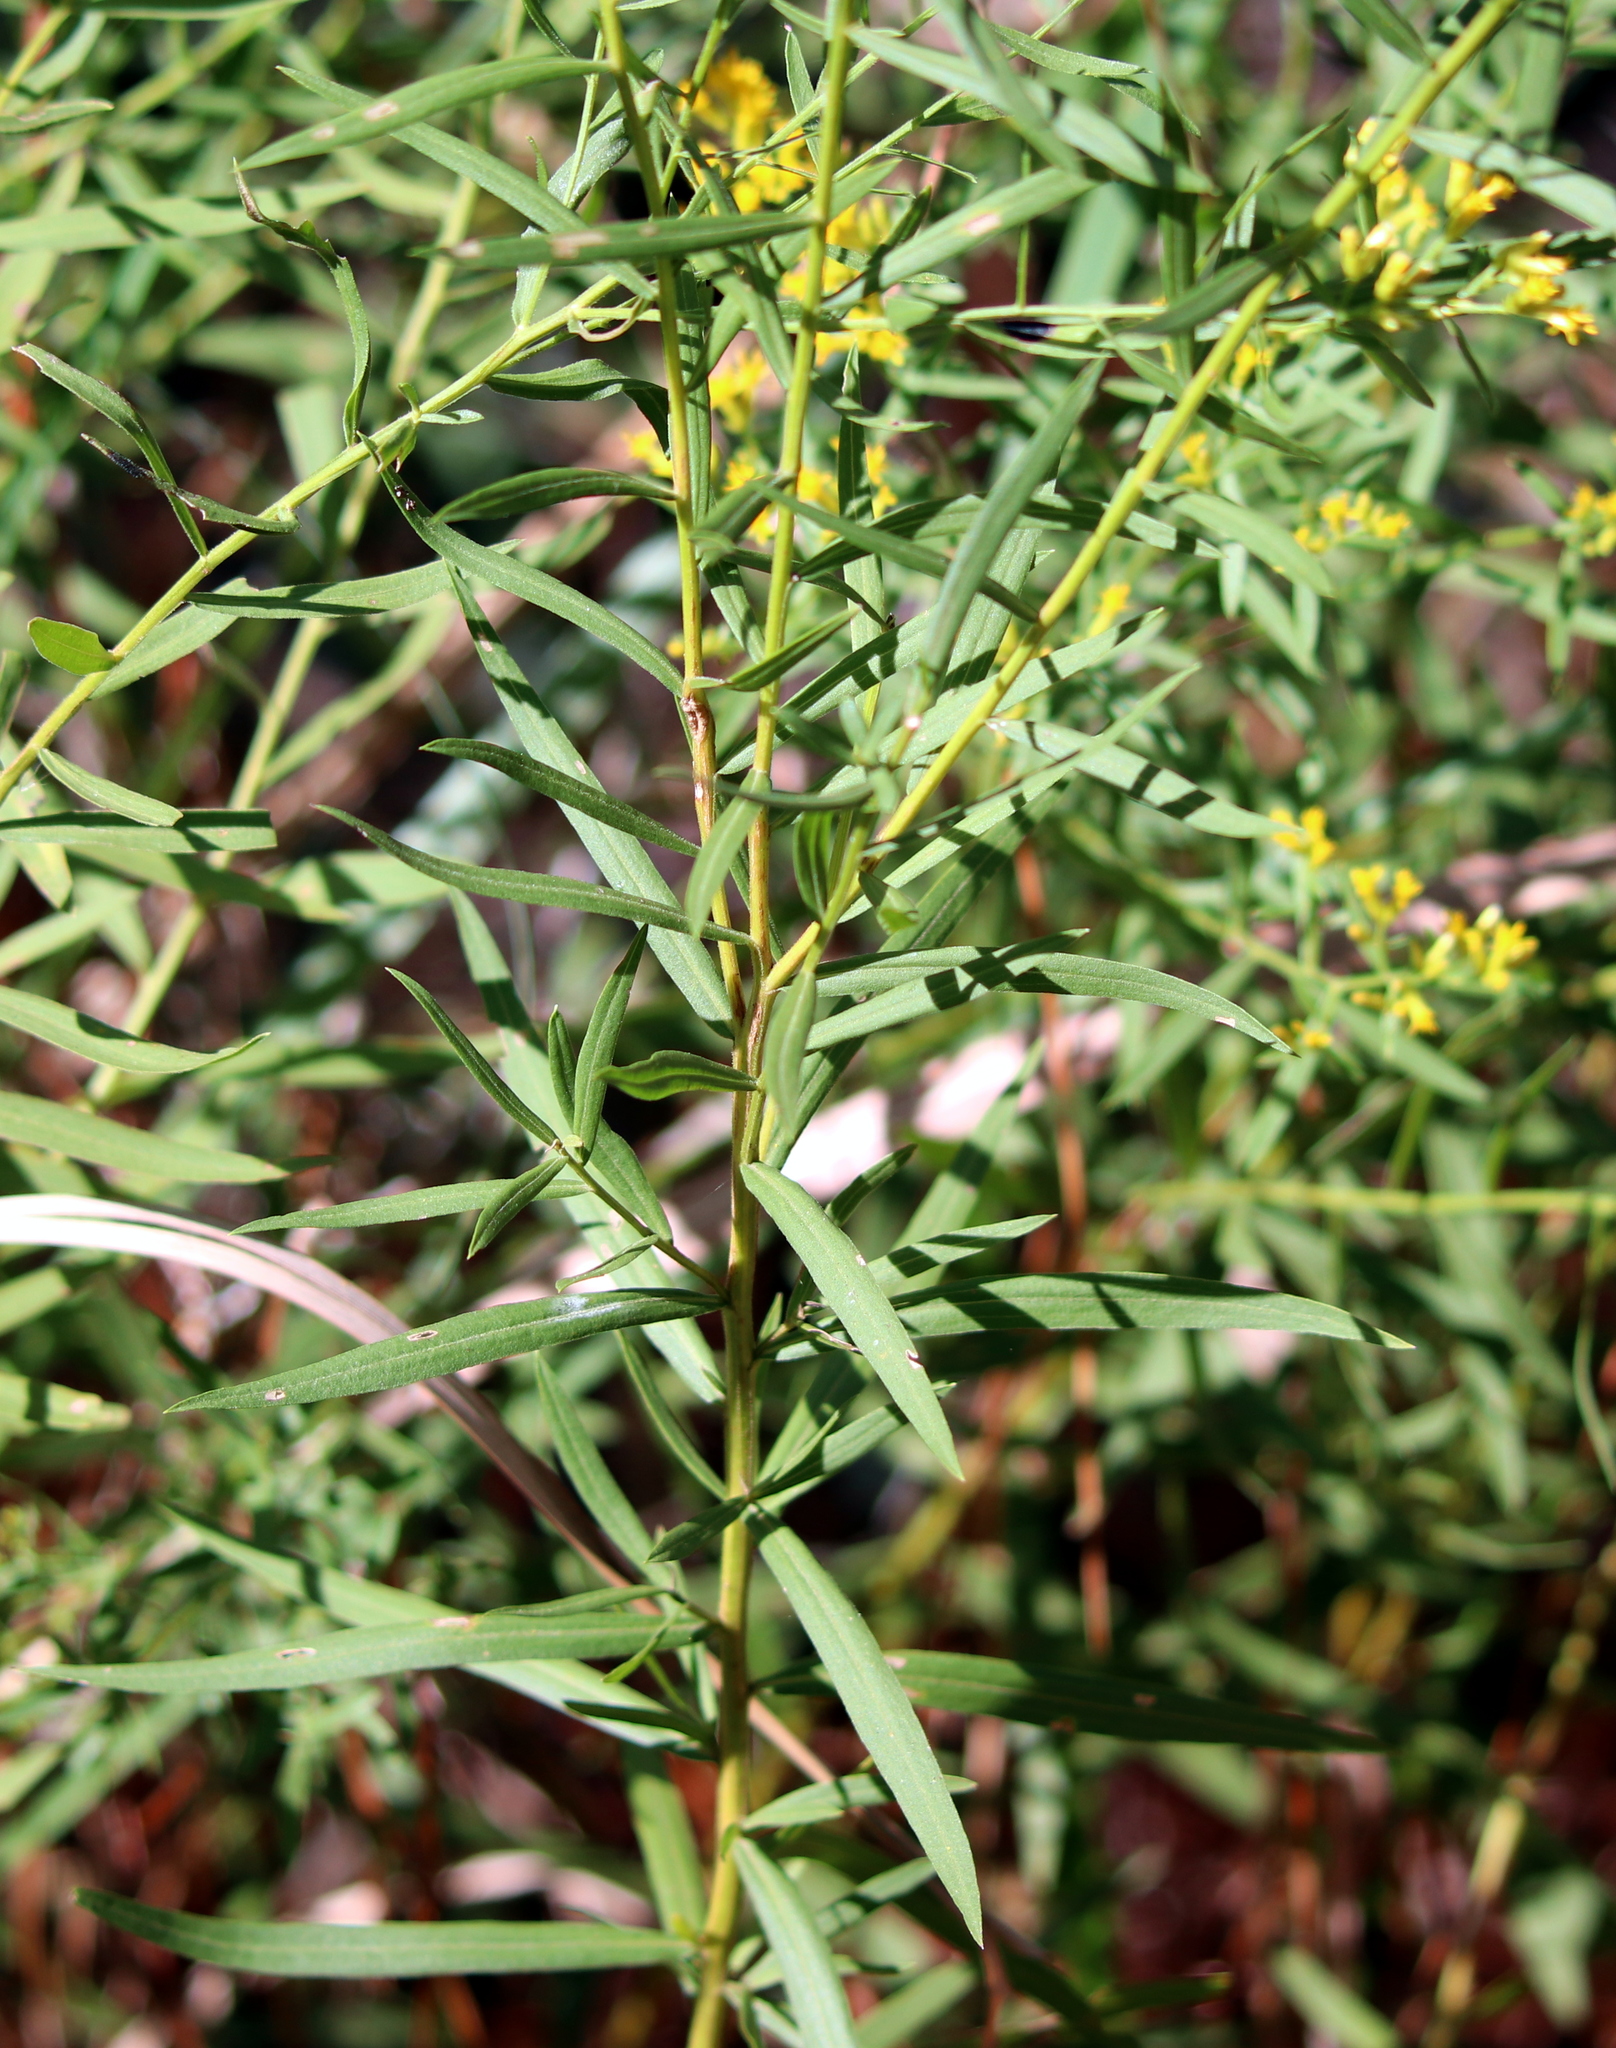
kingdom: Plantae
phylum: Tracheophyta
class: Magnoliopsida
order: Asterales
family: Asteraceae
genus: Euthamia
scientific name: Euthamia scabra
